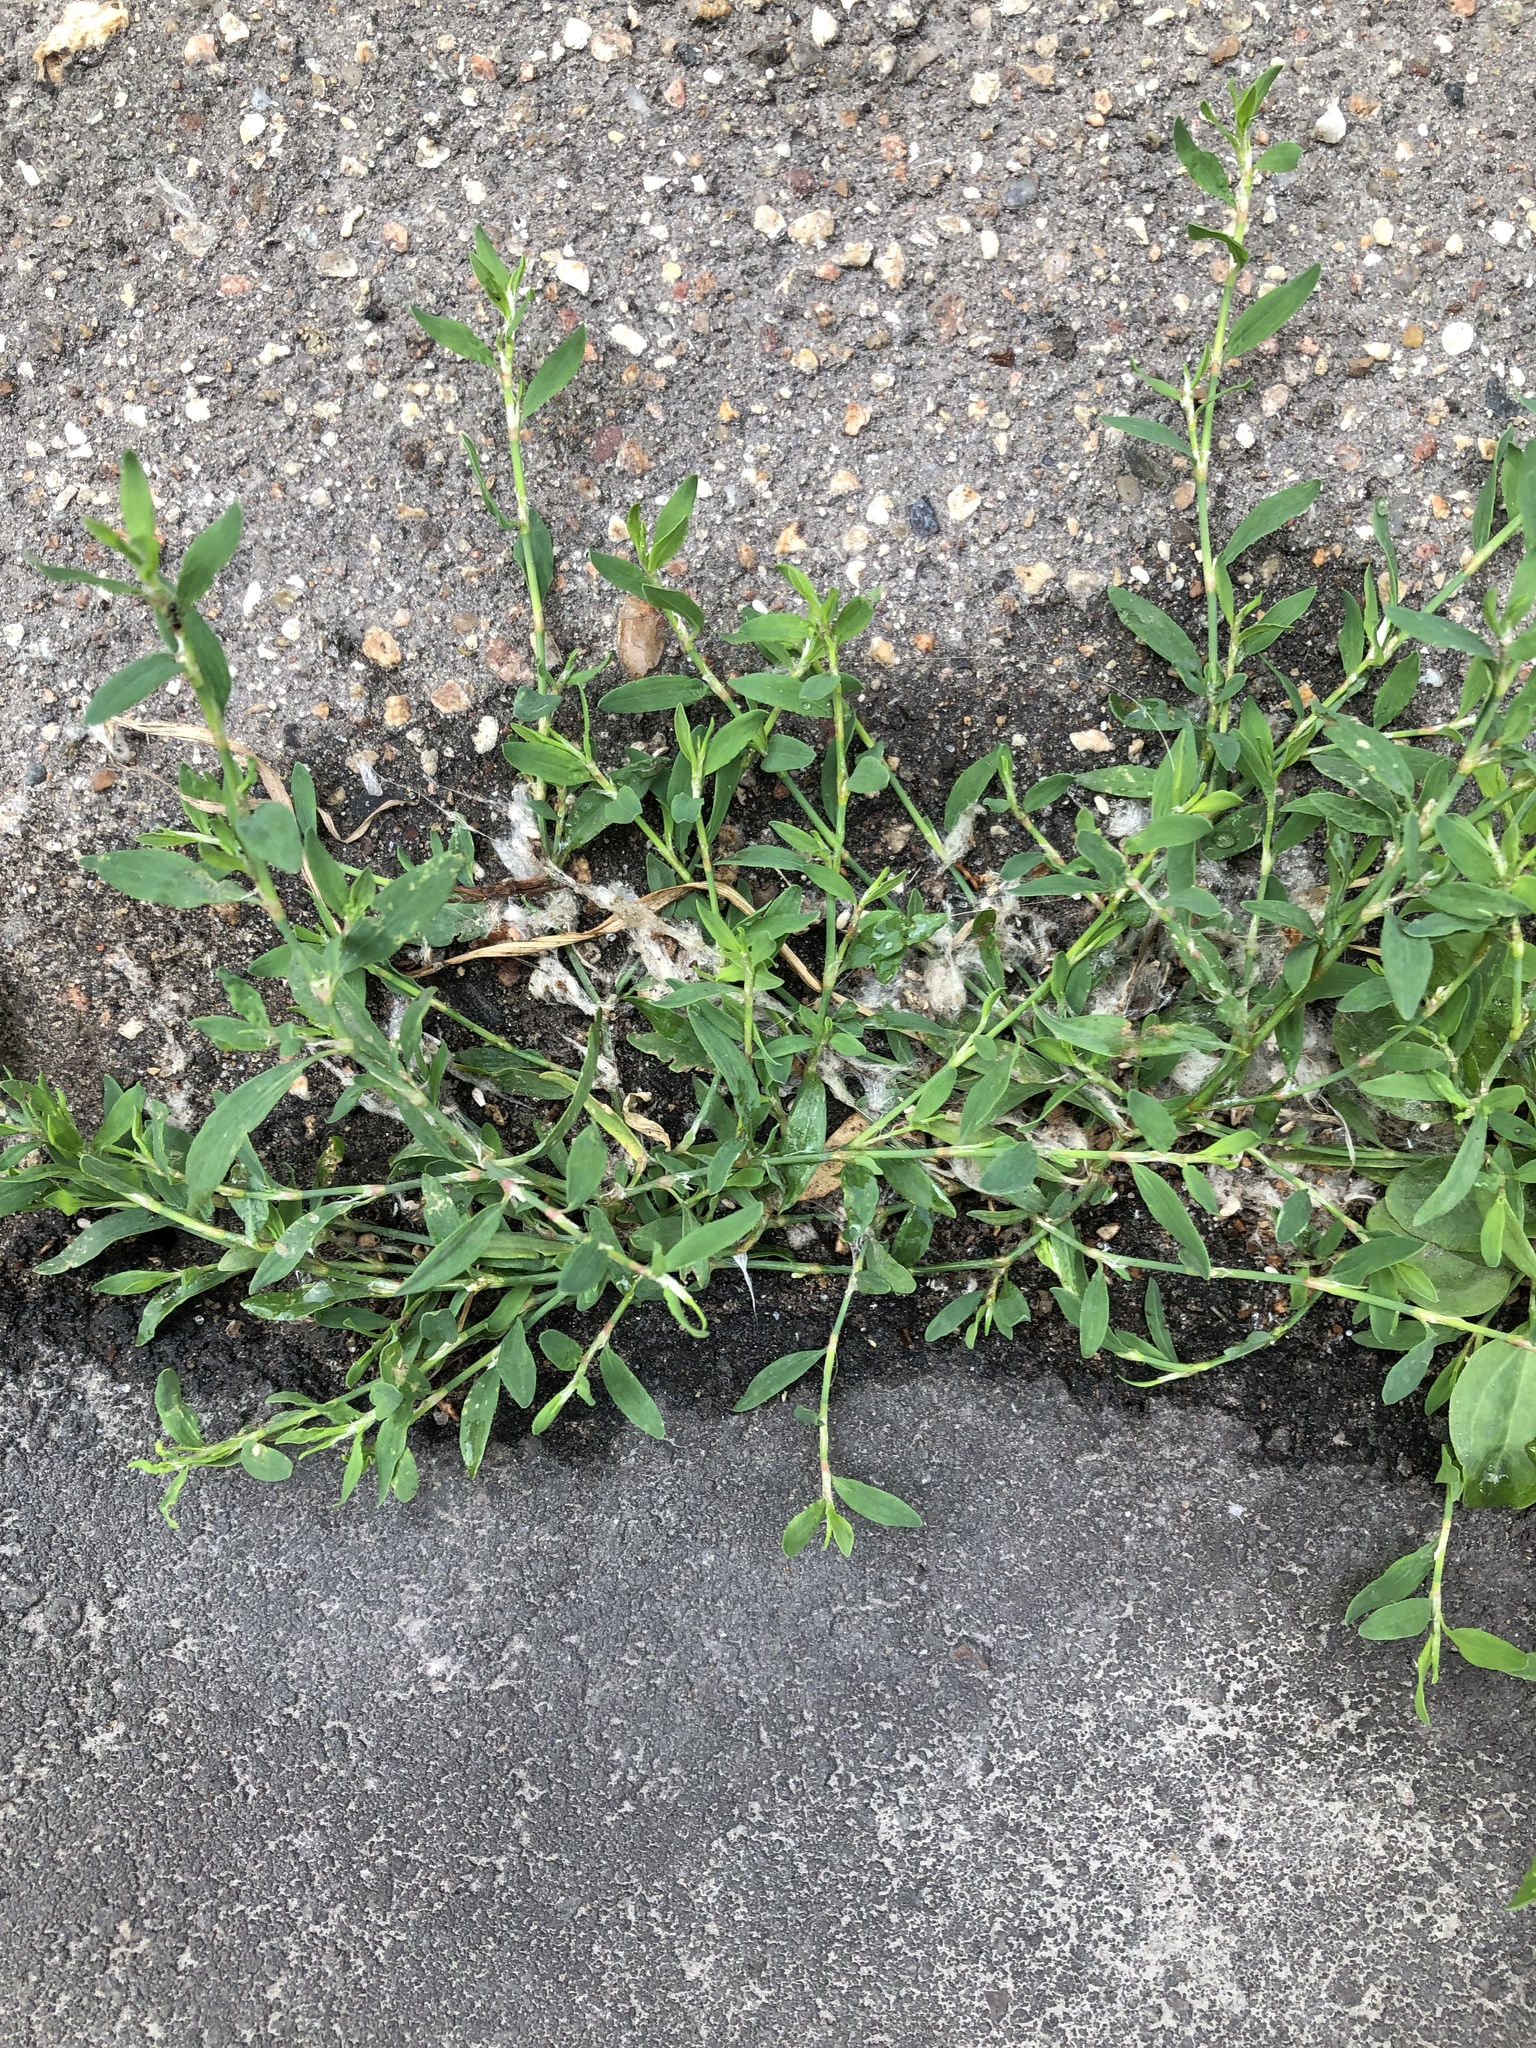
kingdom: Plantae
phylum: Tracheophyta
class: Magnoliopsida
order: Caryophyllales
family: Polygonaceae
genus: Polygonum
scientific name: Polygonum
